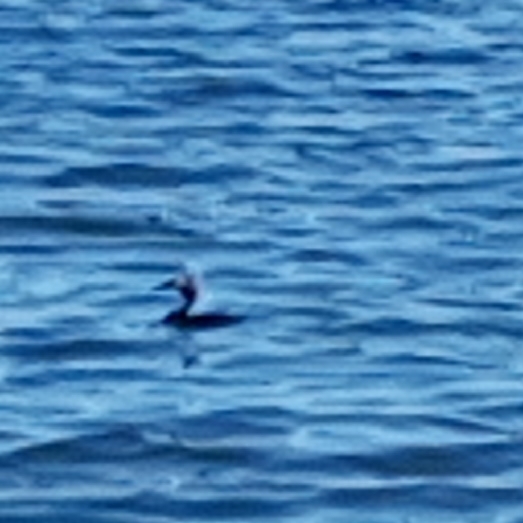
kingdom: Animalia
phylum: Chordata
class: Aves
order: Podicipediformes
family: Podicipedidae
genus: Podiceps
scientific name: Podiceps cristatus
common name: Great crested grebe
